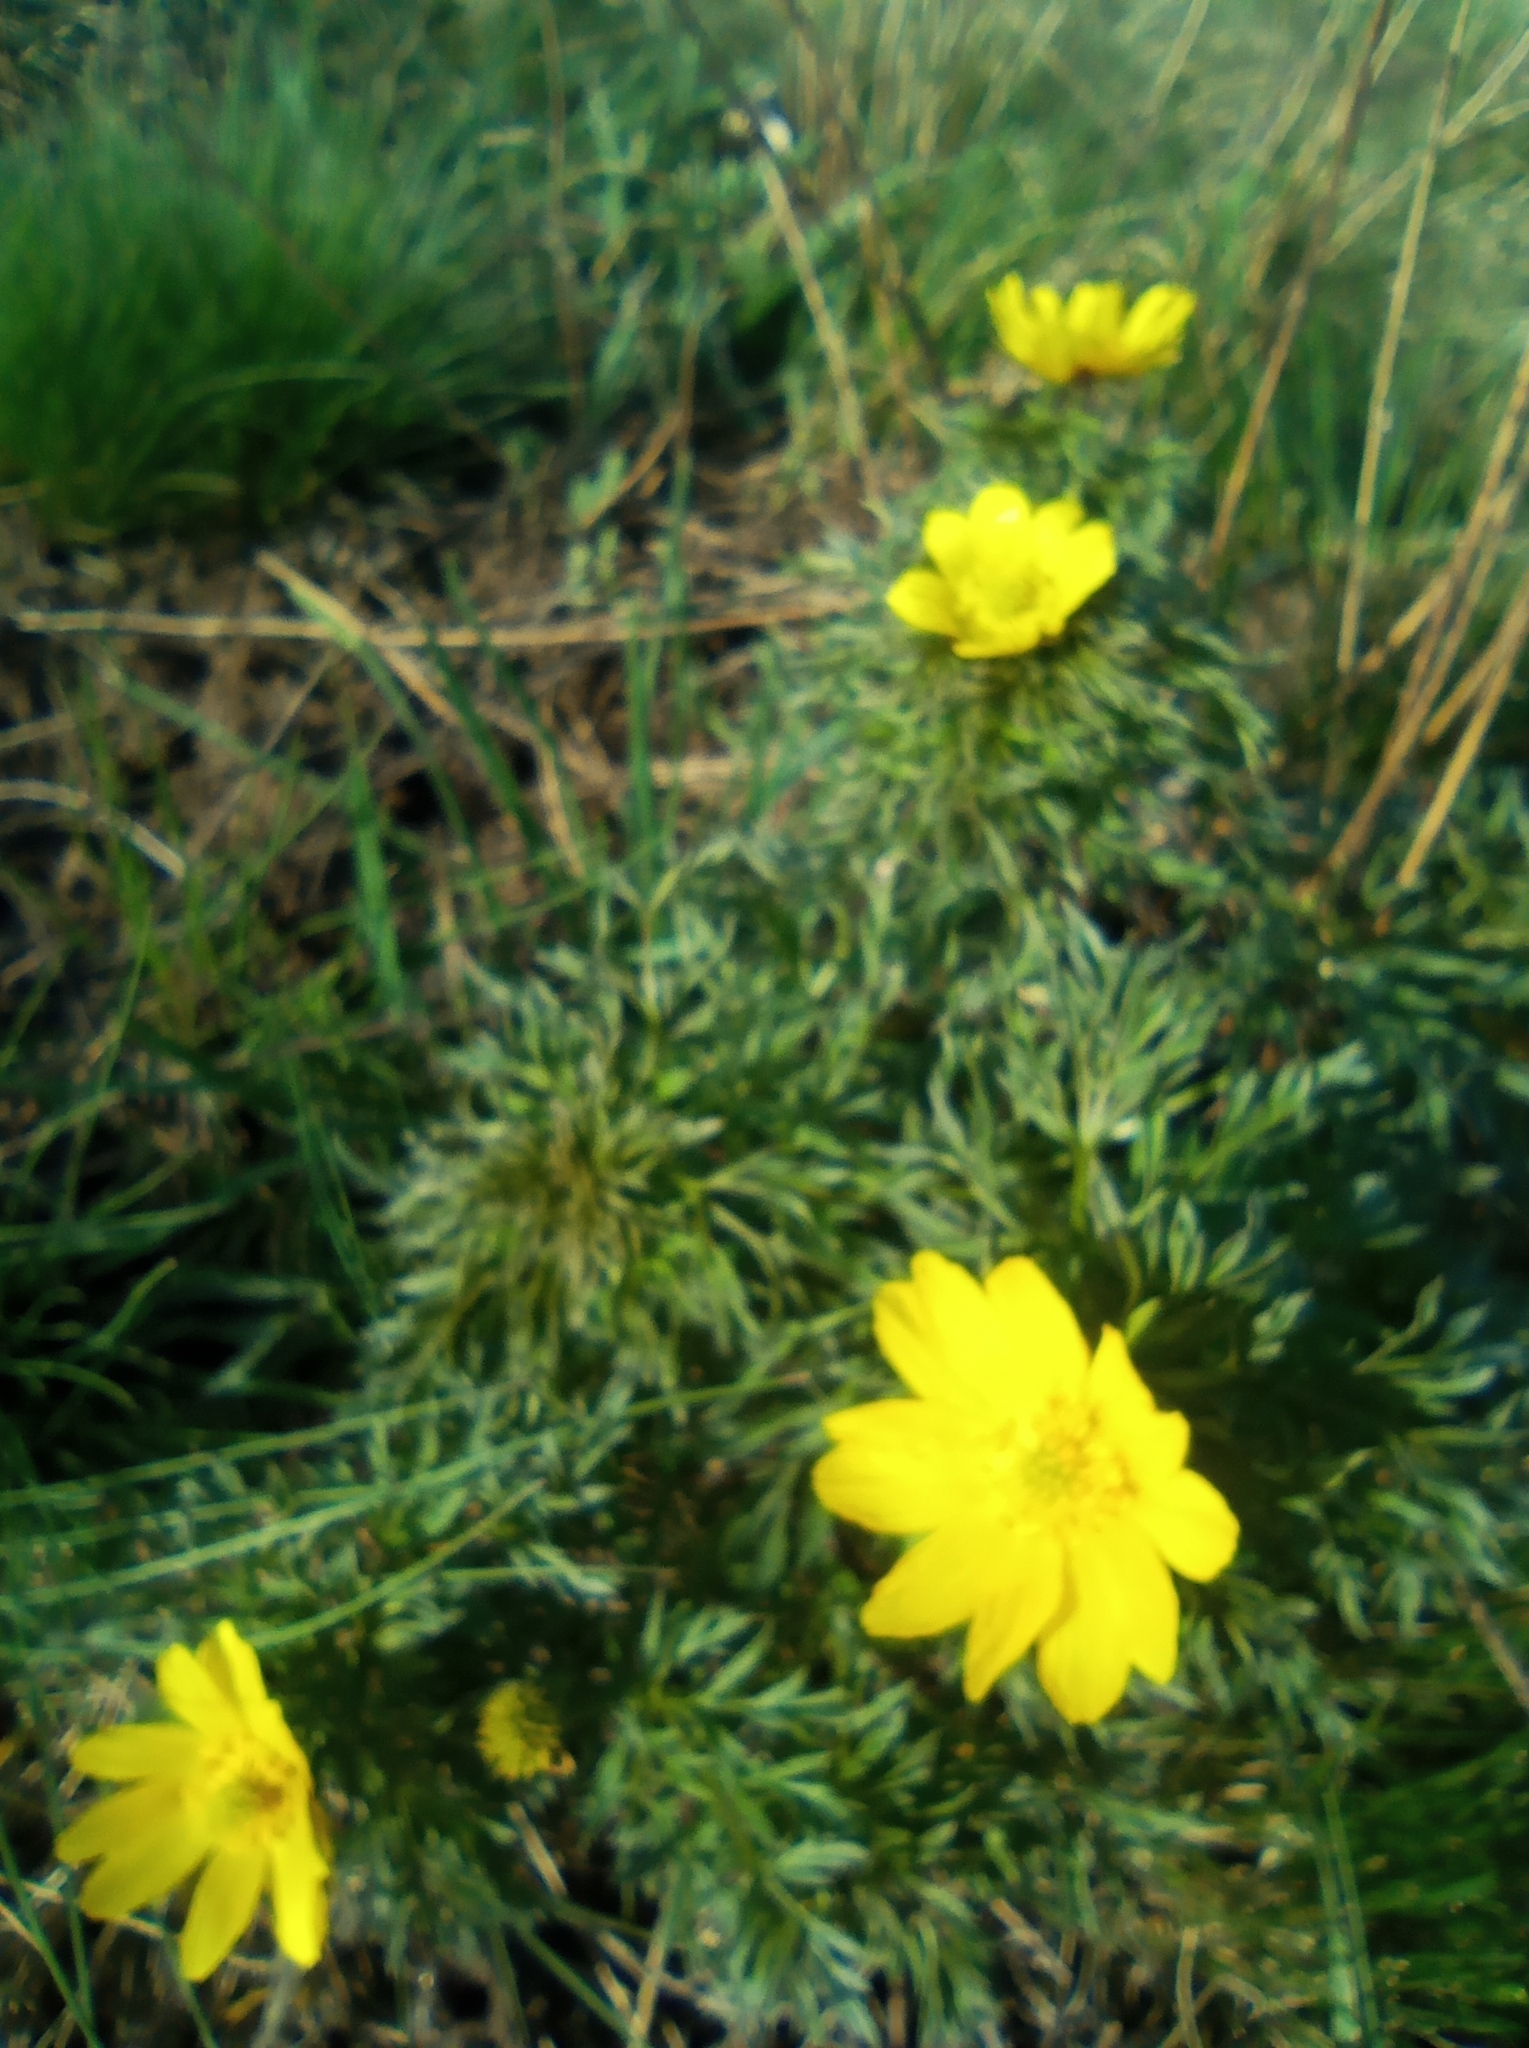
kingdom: Plantae
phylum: Tracheophyta
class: Magnoliopsida
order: Ranunculales
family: Ranunculaceae
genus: Adonis
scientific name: Adonis volgensis
